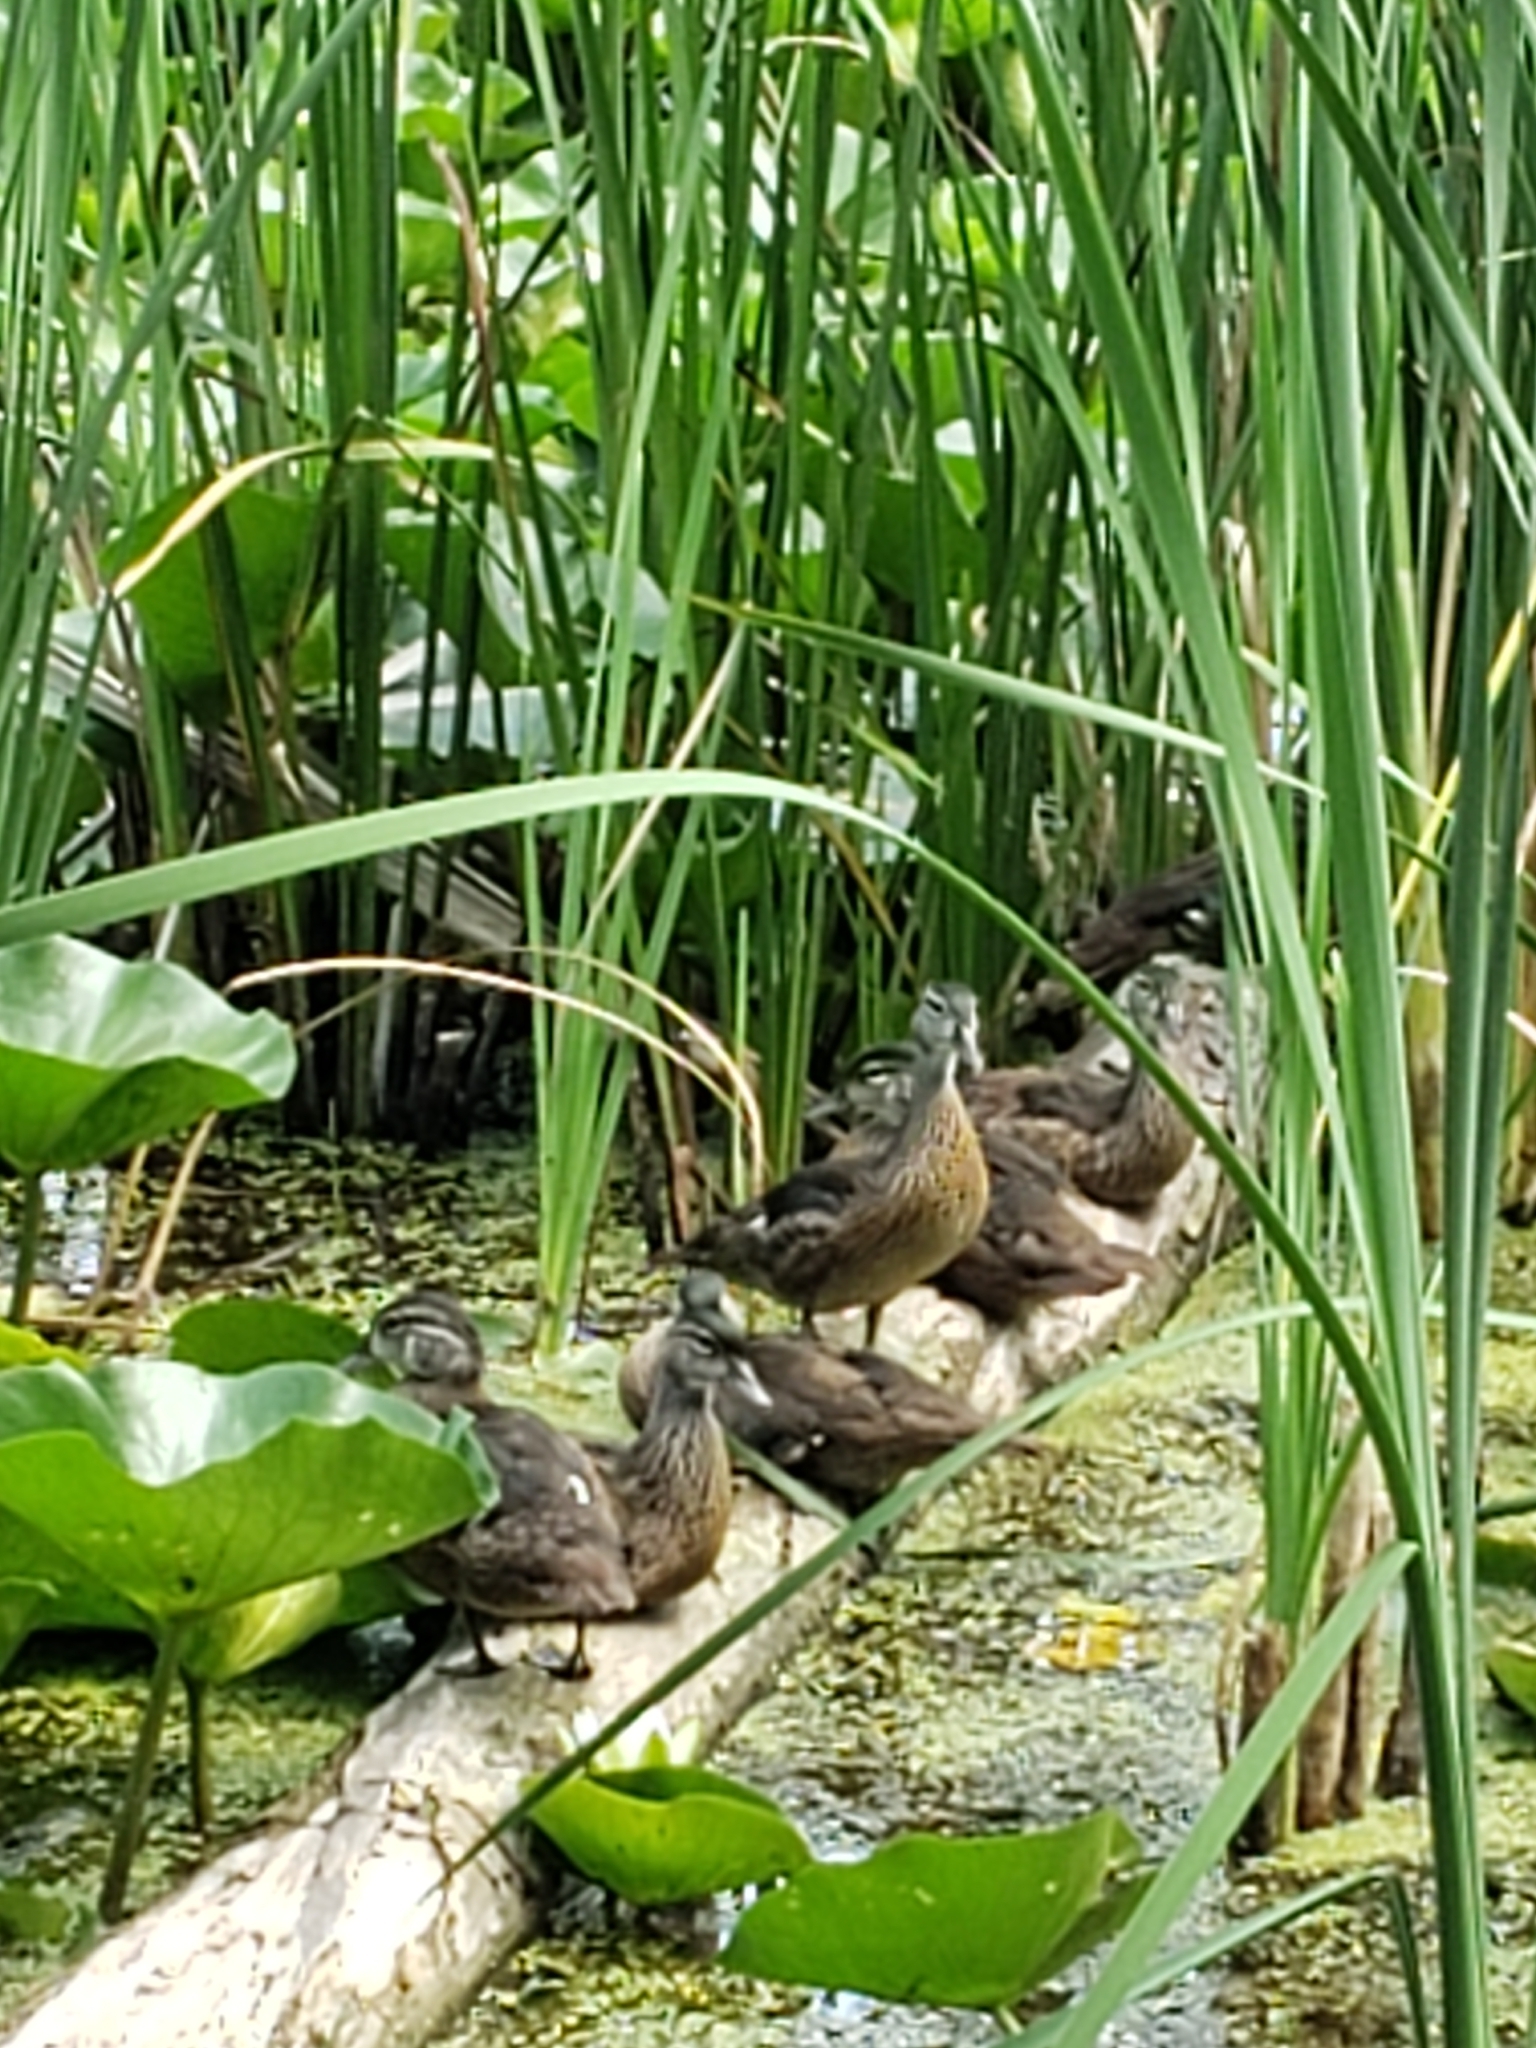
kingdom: Animalia
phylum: Chordata
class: Aves
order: Anseriformes
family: Anatidae
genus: Aix
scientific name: Aix sponsa
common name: Wood duck
